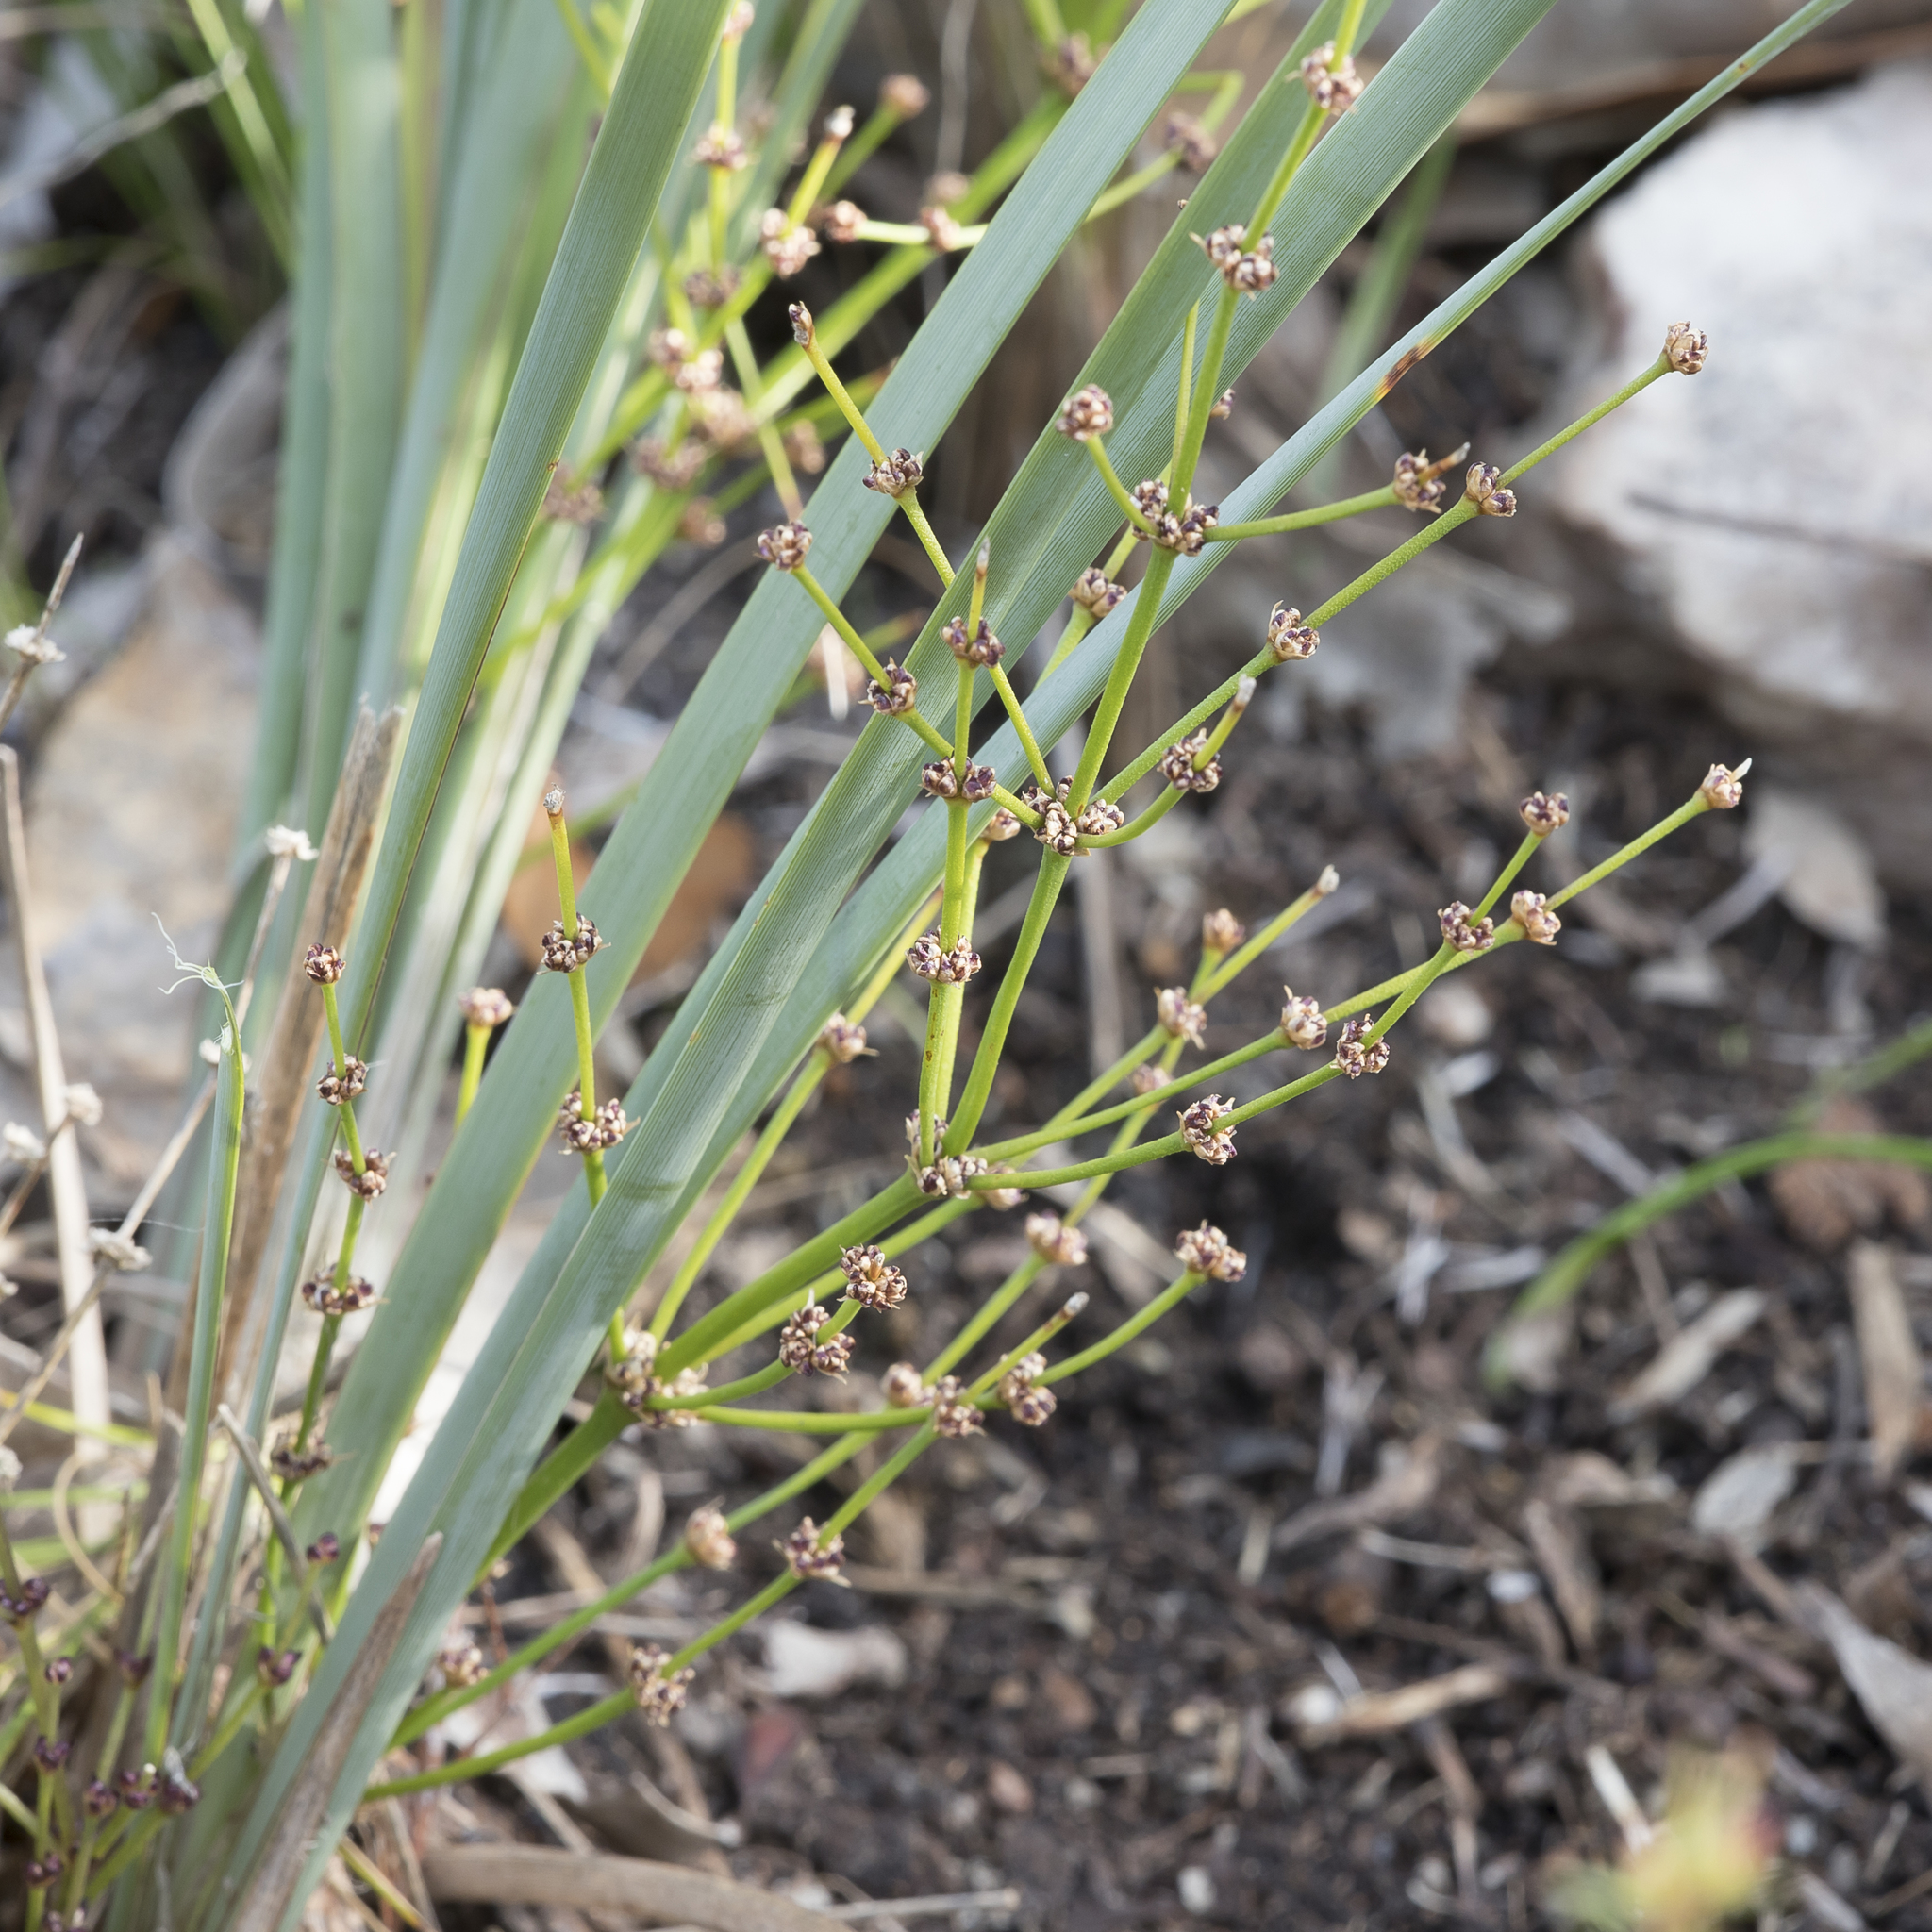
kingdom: Plantae
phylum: Tracheophyta
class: Liliopsida
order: Asparagales
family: Asparagaceae
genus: Lomandra
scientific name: Lomandra multiflora
